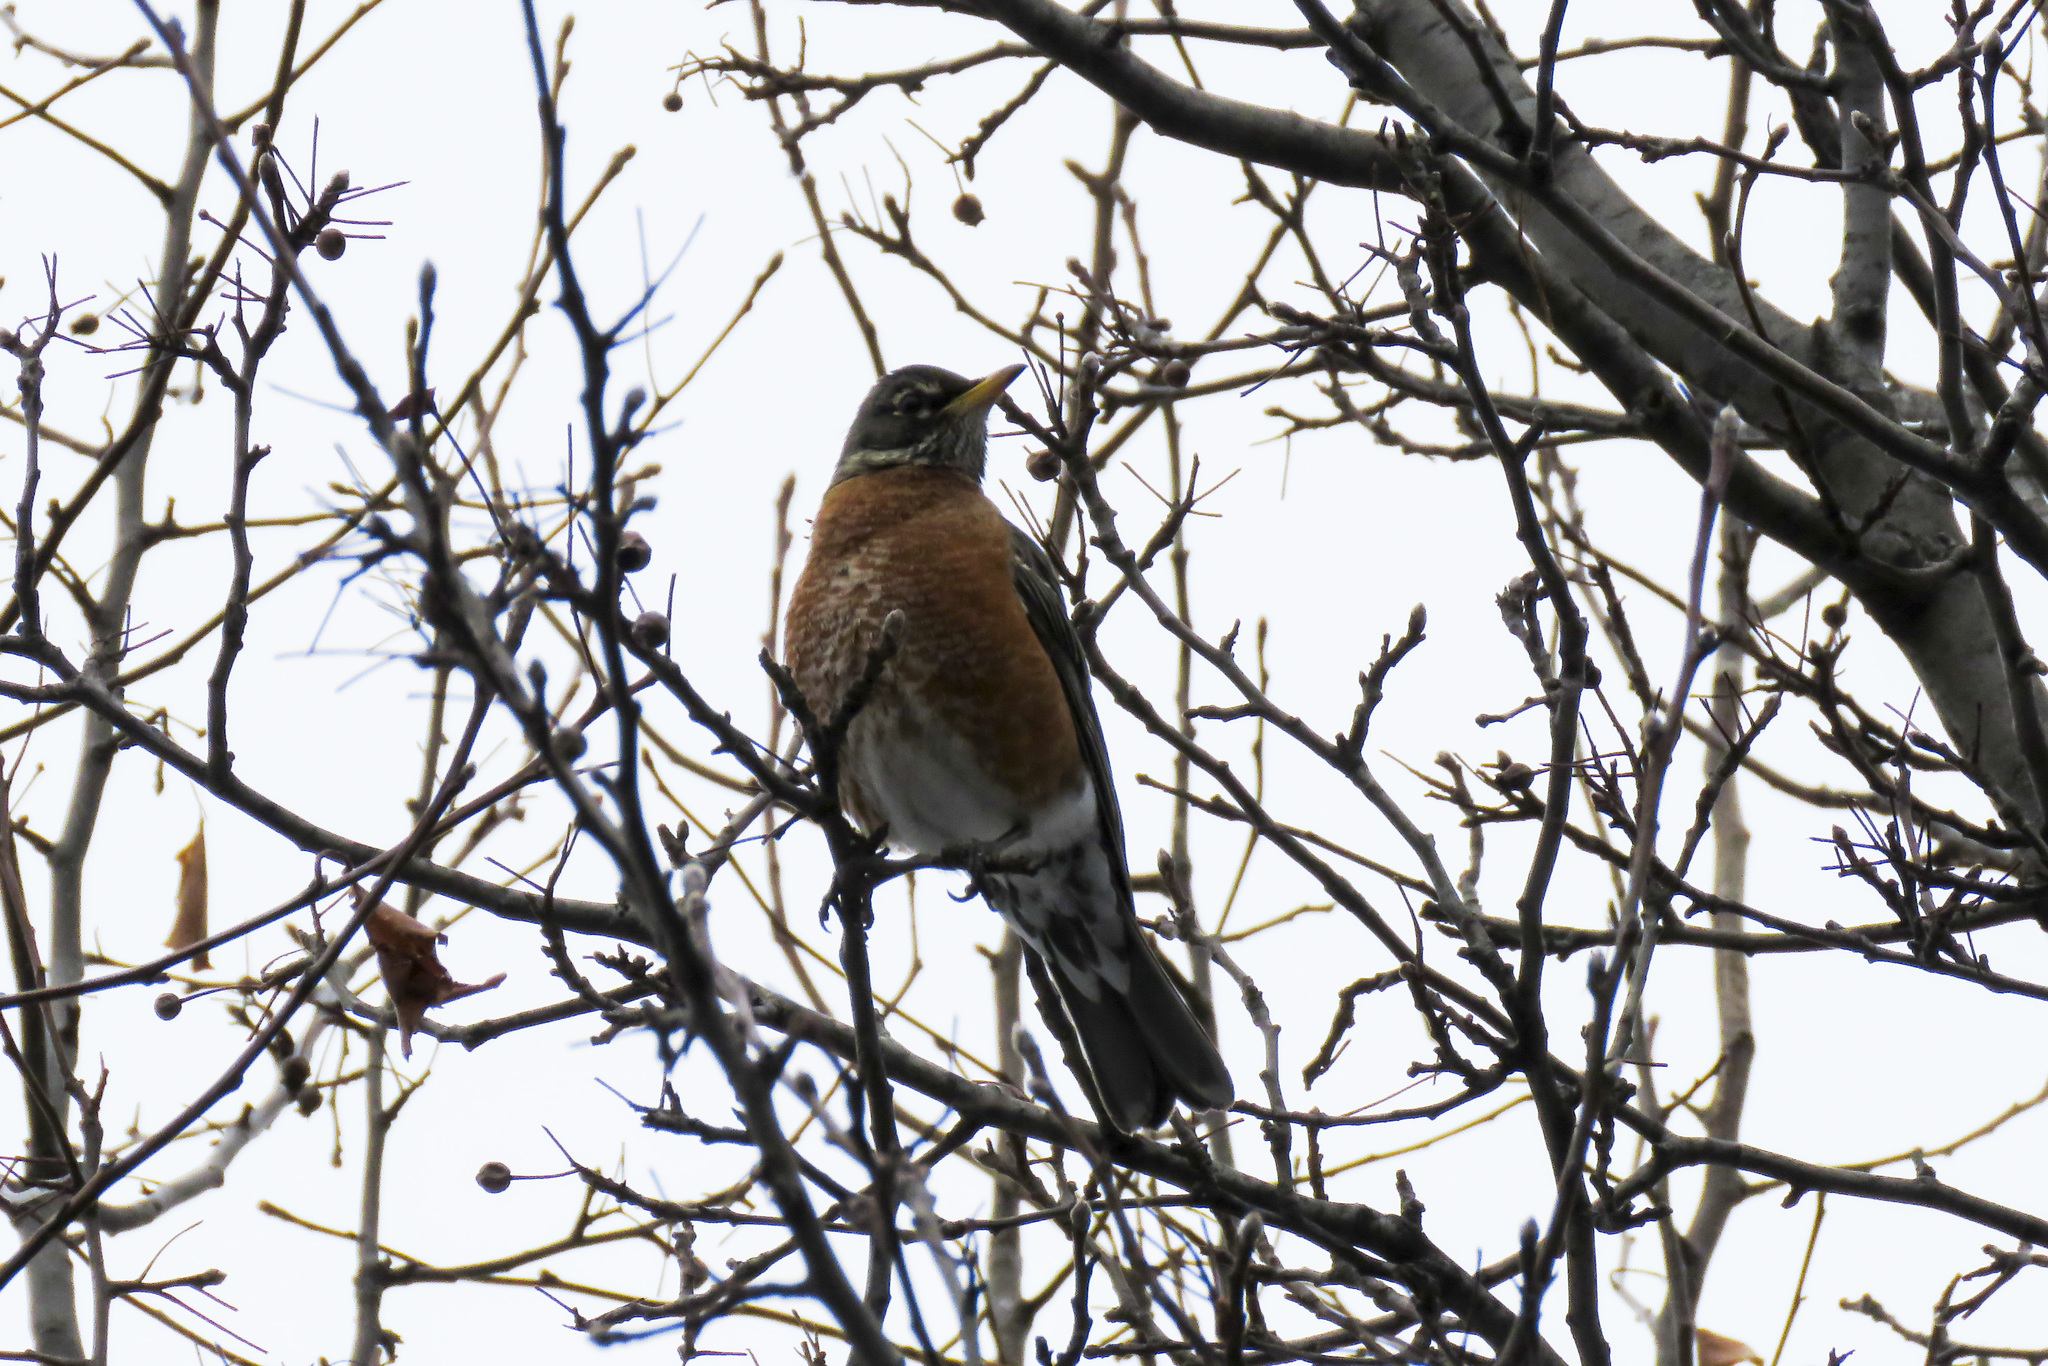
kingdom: Animalia
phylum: Chordata
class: Aves
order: Passeriformes
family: Turdidae
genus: Turdus
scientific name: Turdus migratorius
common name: American robin
